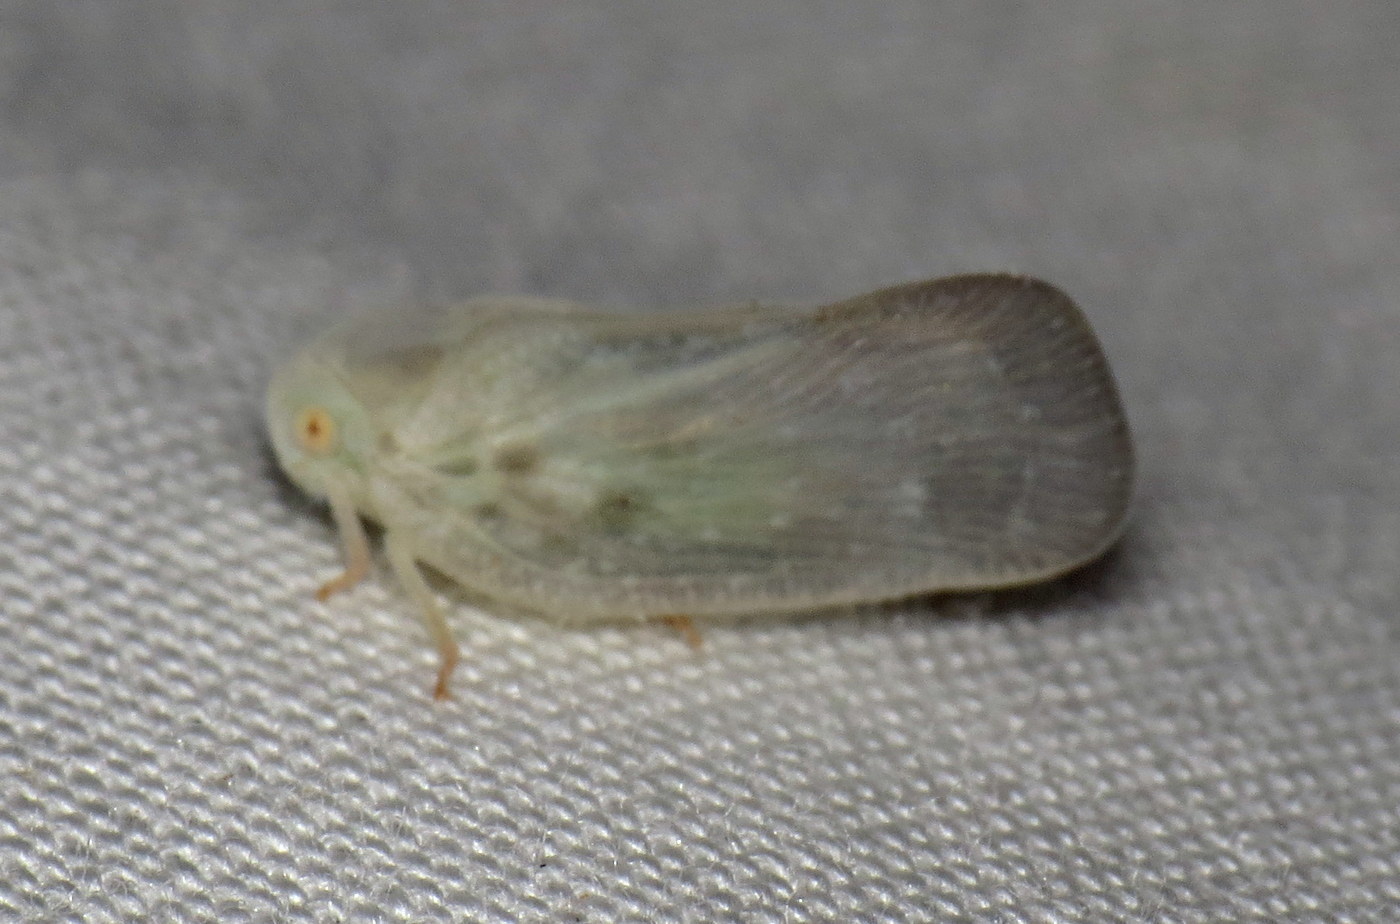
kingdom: Animalia
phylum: Arthropoda
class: Insecta
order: Hemiptera
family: Flatidae
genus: Metcalfa
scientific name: Metcalfa pruinosa
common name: Citrus flatid planthopper
